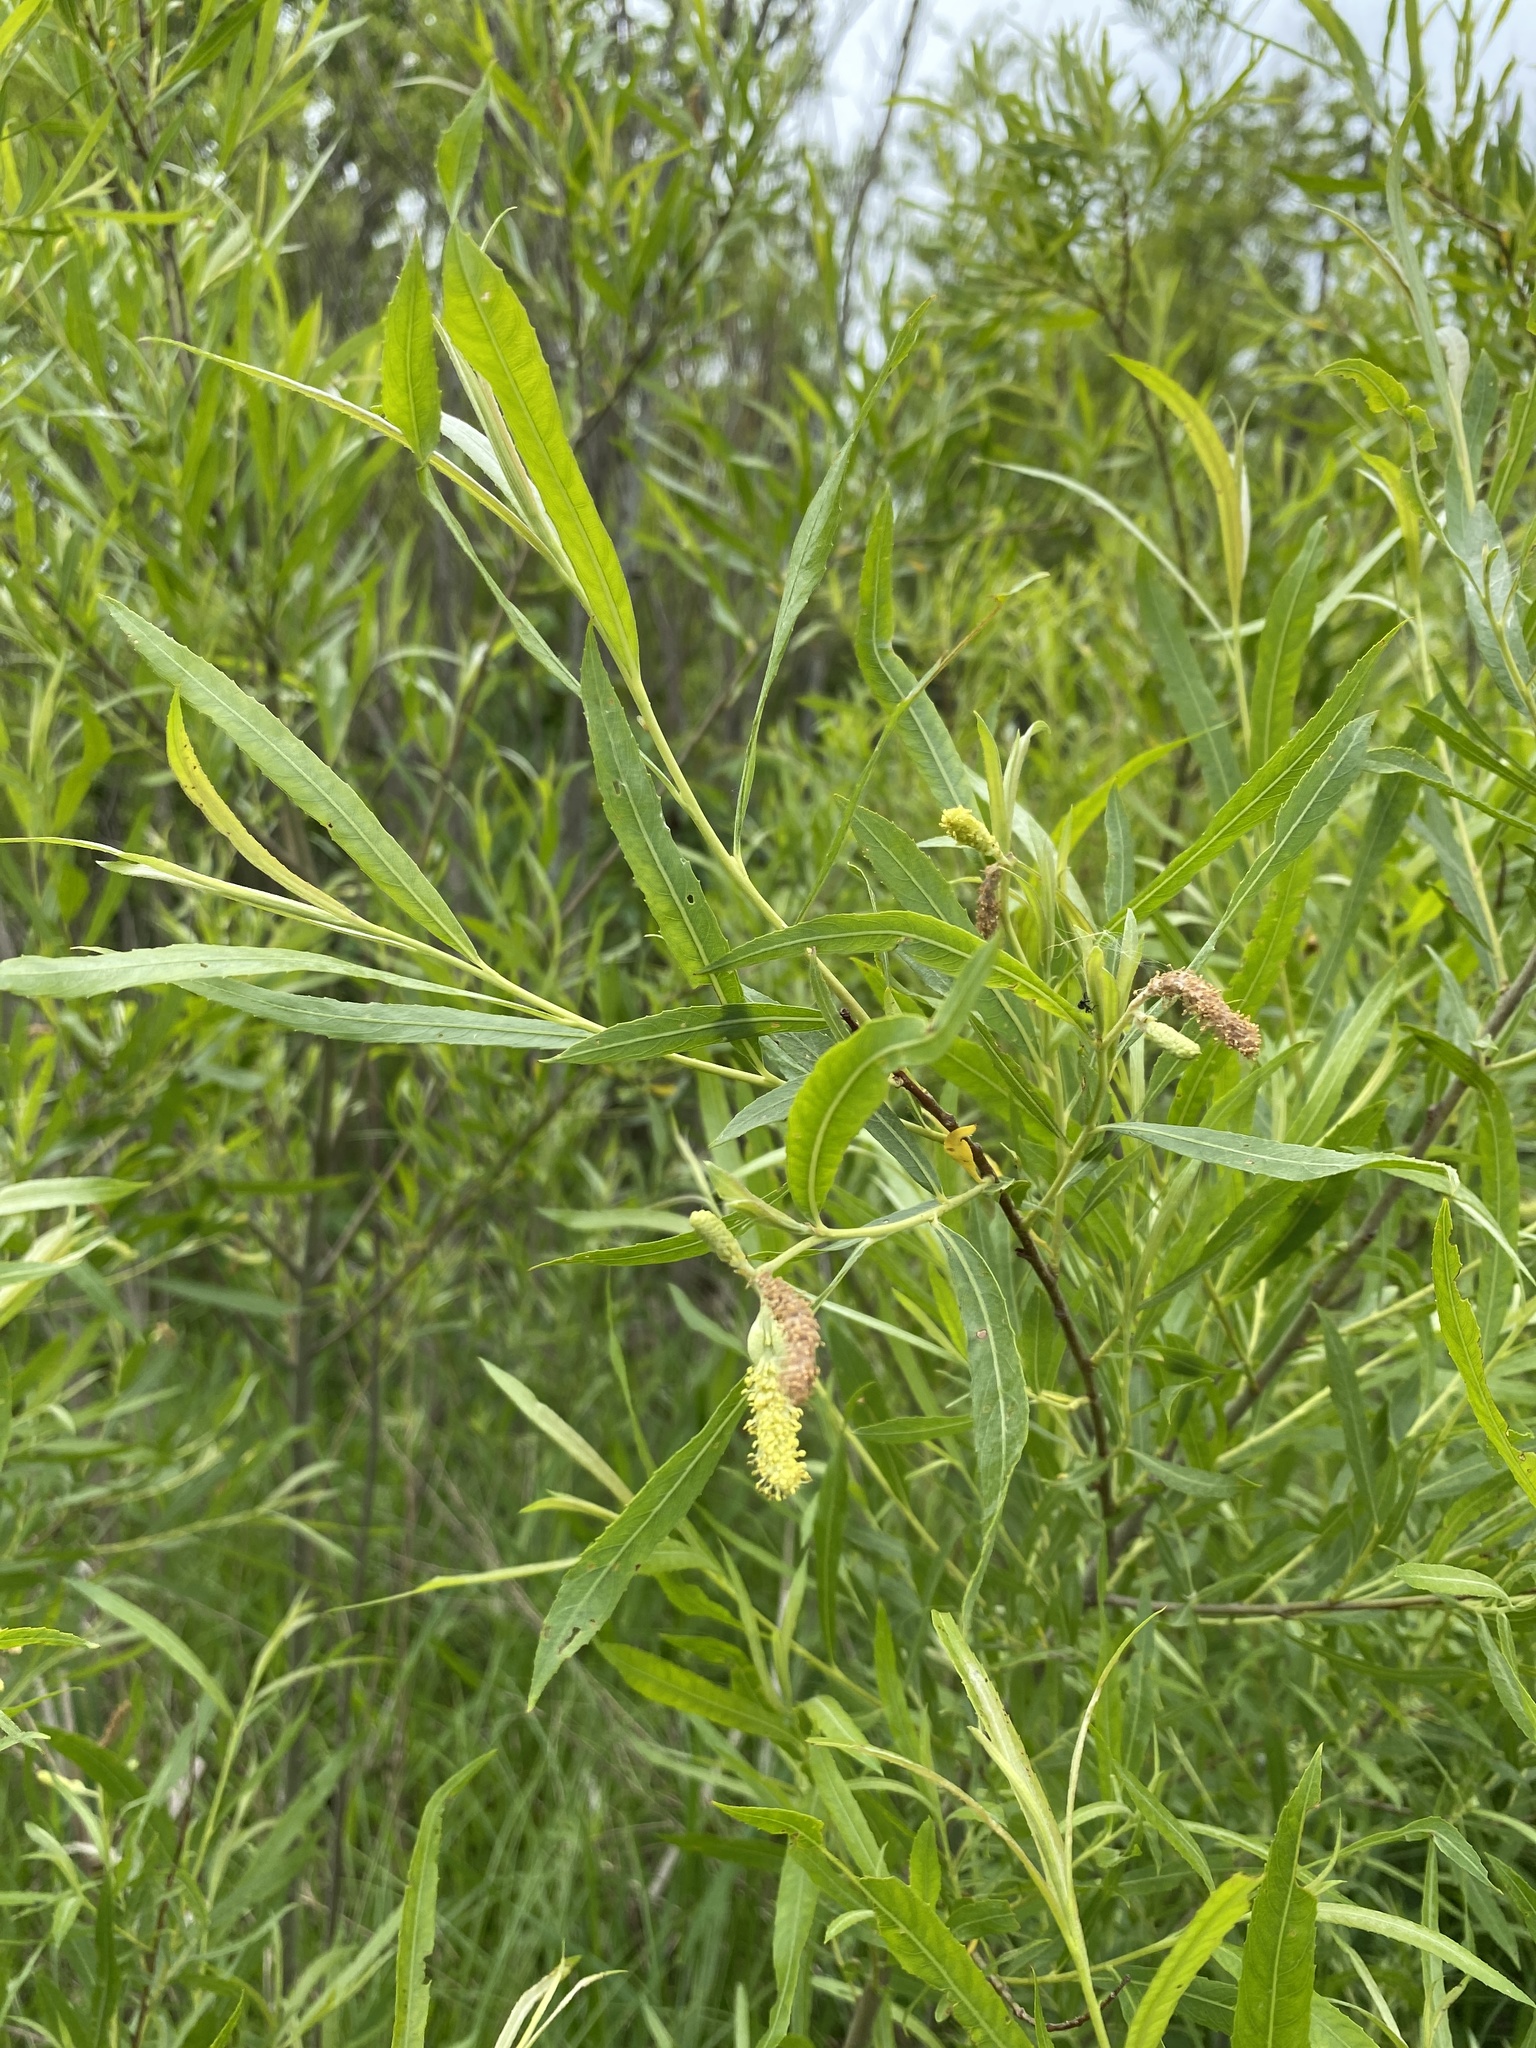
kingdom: Plantae
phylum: Tracheophyta
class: Magnoliopsida
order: Malpighiales
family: Salicaceae
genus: Salix
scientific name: Salix interior
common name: Sandbar willow
